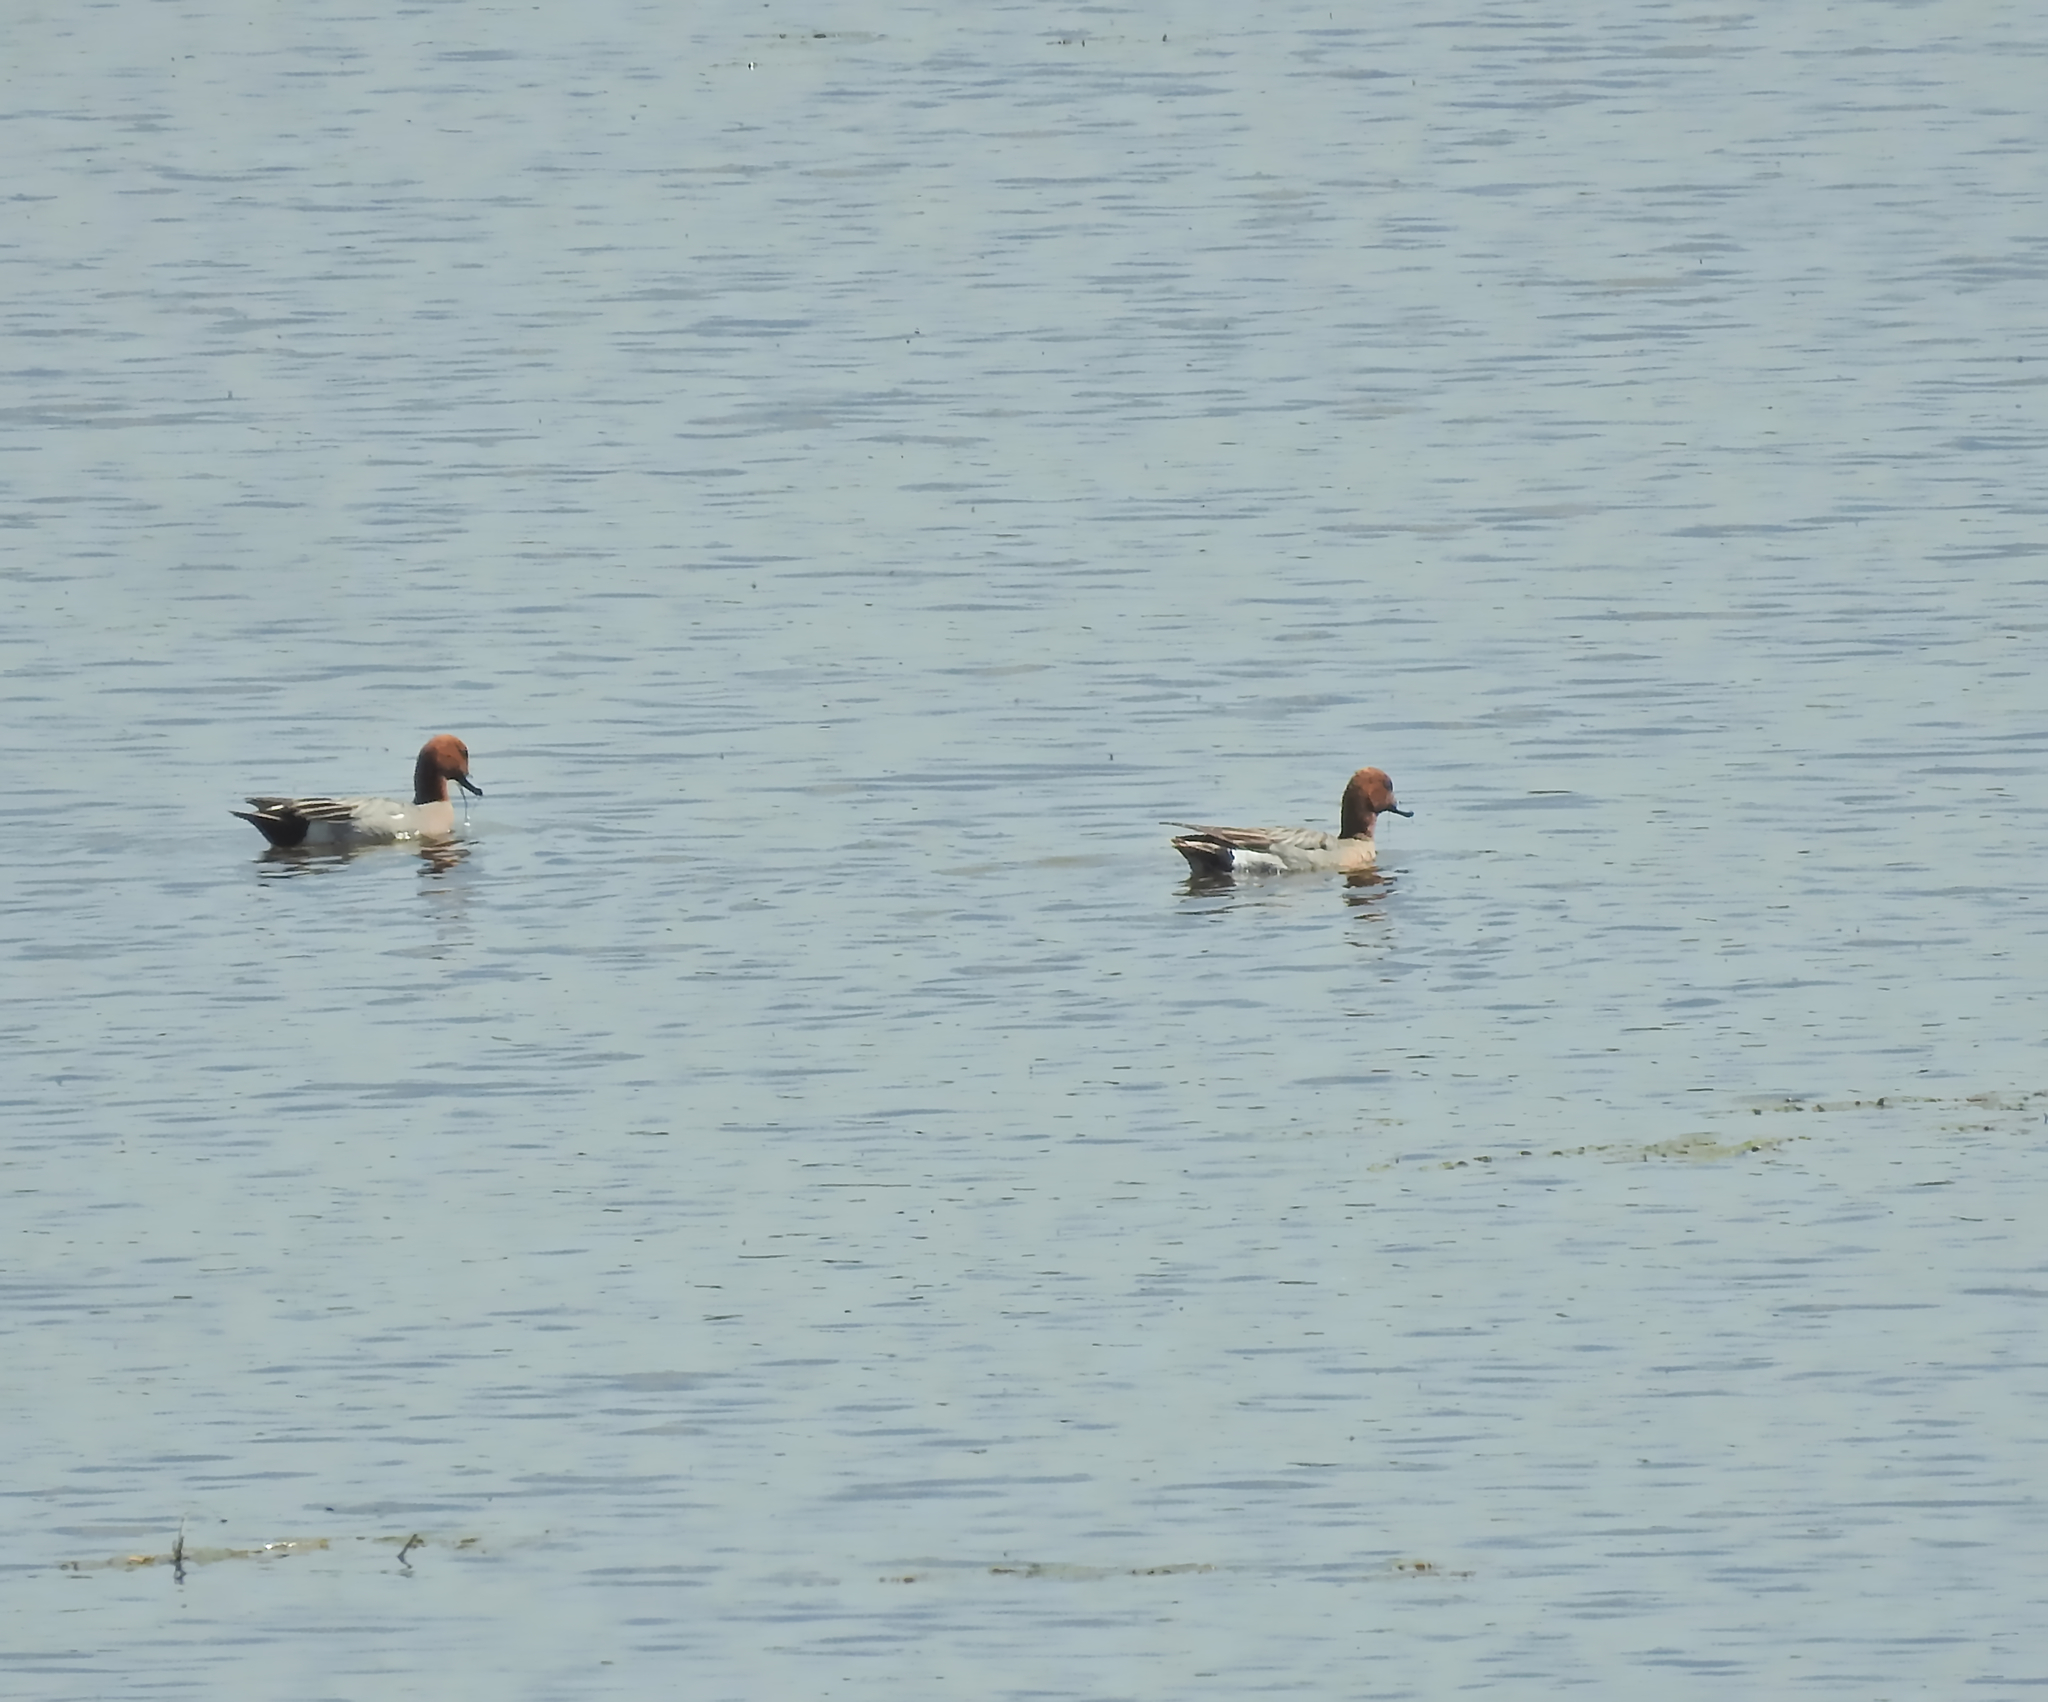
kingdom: Animalia
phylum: Chordata
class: Aves
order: Anseriformes
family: Anatidae
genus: Mareca
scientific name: Mareca penelope
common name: Eurasian wigeon
